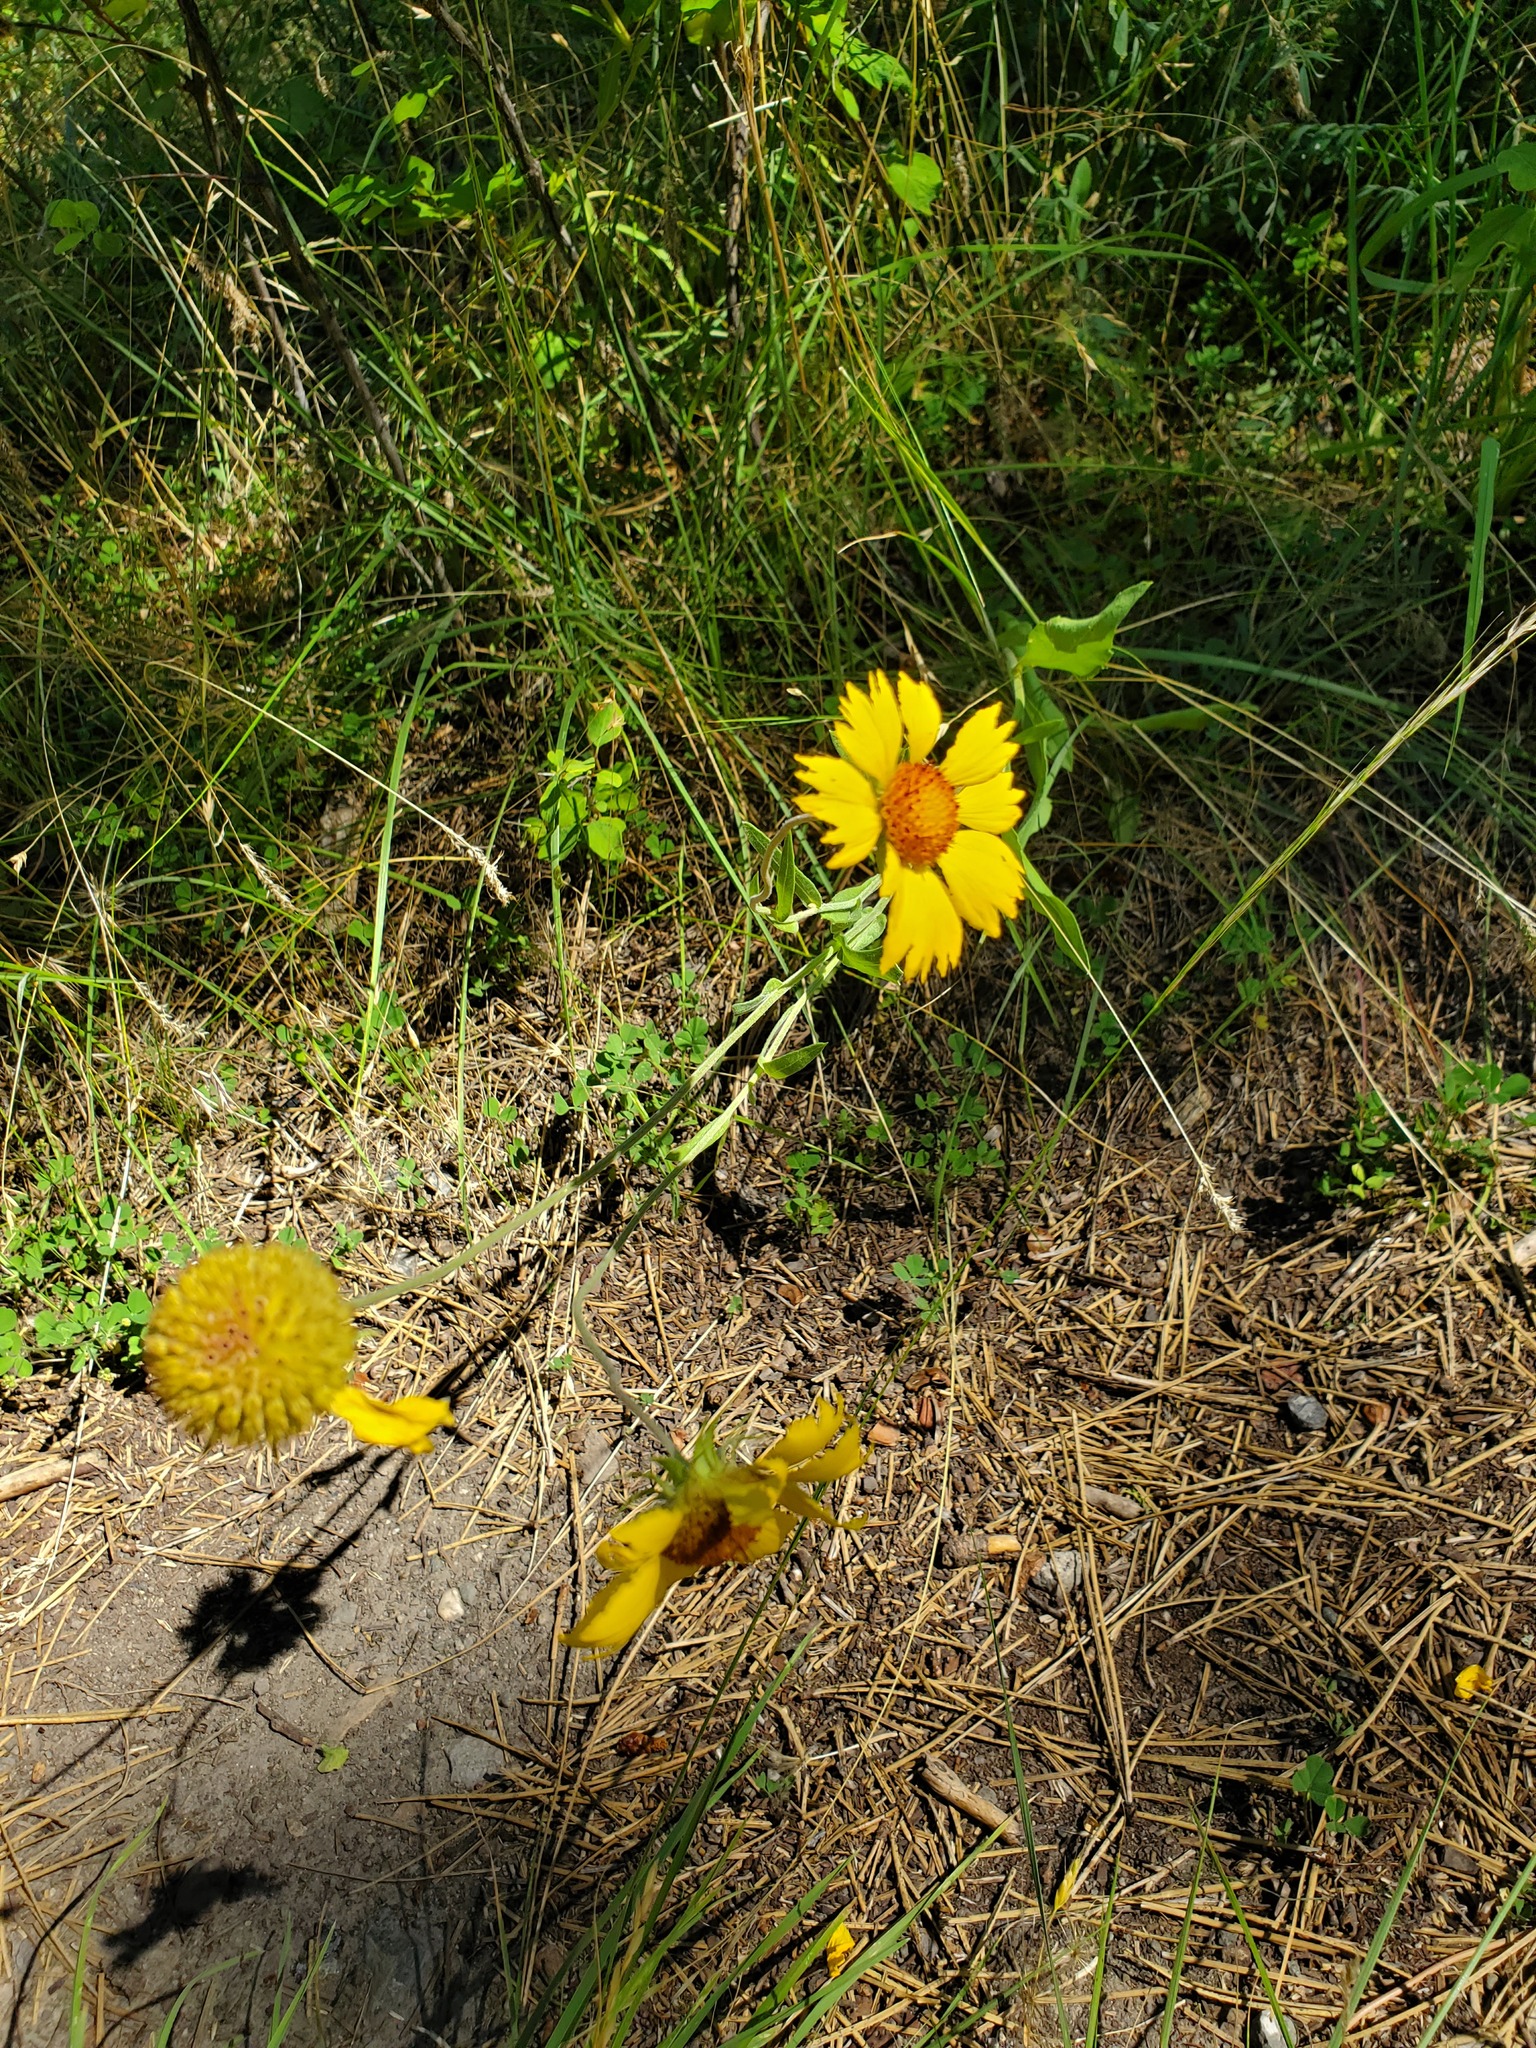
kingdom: Plantae
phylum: Tracheophyta
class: Magnoliopsida
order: Asterales
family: Asteraceae
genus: Gaillardia
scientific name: Gaillardia aristata
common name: Blanket-flower
